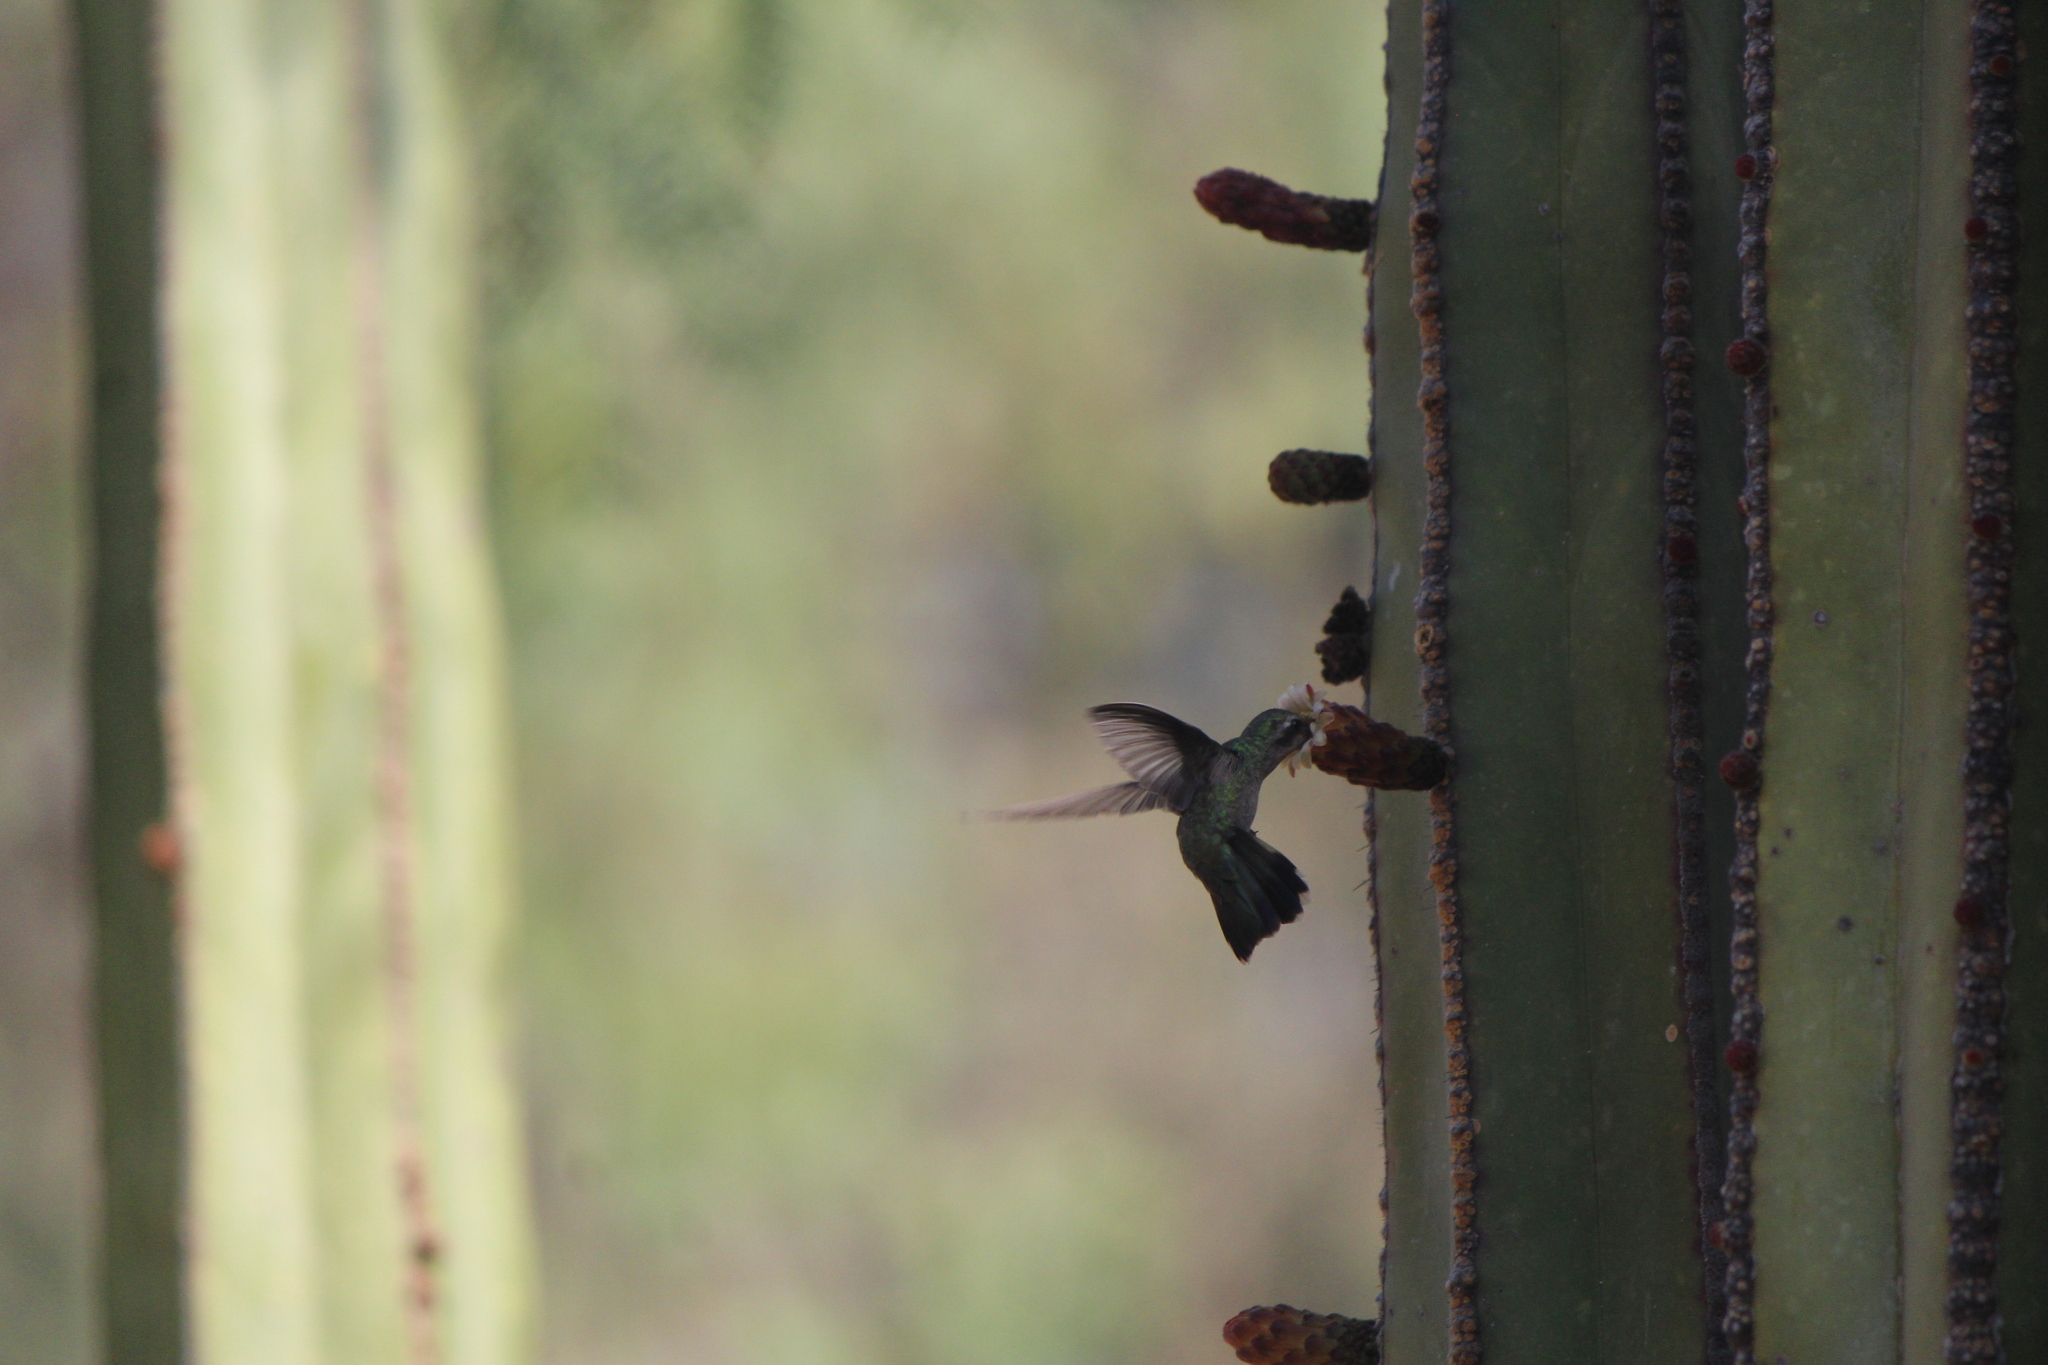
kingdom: Animalia
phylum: Chordata
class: Aves
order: Apodiformes
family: Trochilidae
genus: Cynanthus
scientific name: Cynanthus latirostris
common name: Broad-billed hummingbird
